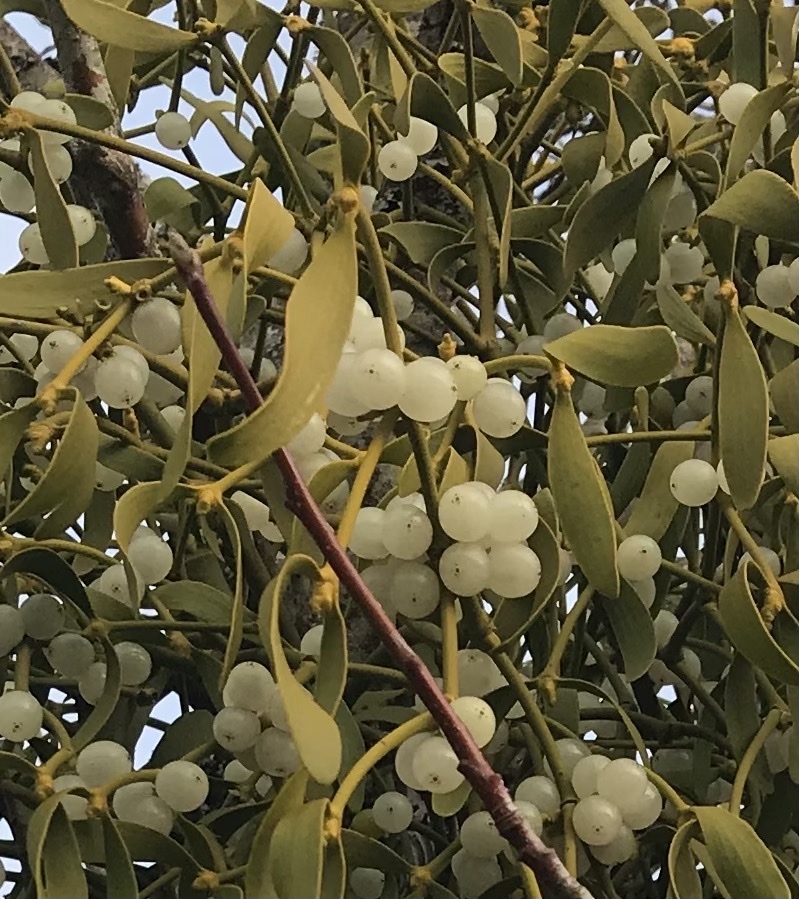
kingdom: Plantae
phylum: Tracheophyta
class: Magnoliopsida
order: Santalales
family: Viscaceae
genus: Viscum
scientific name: Viscum album
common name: Mistletoe
